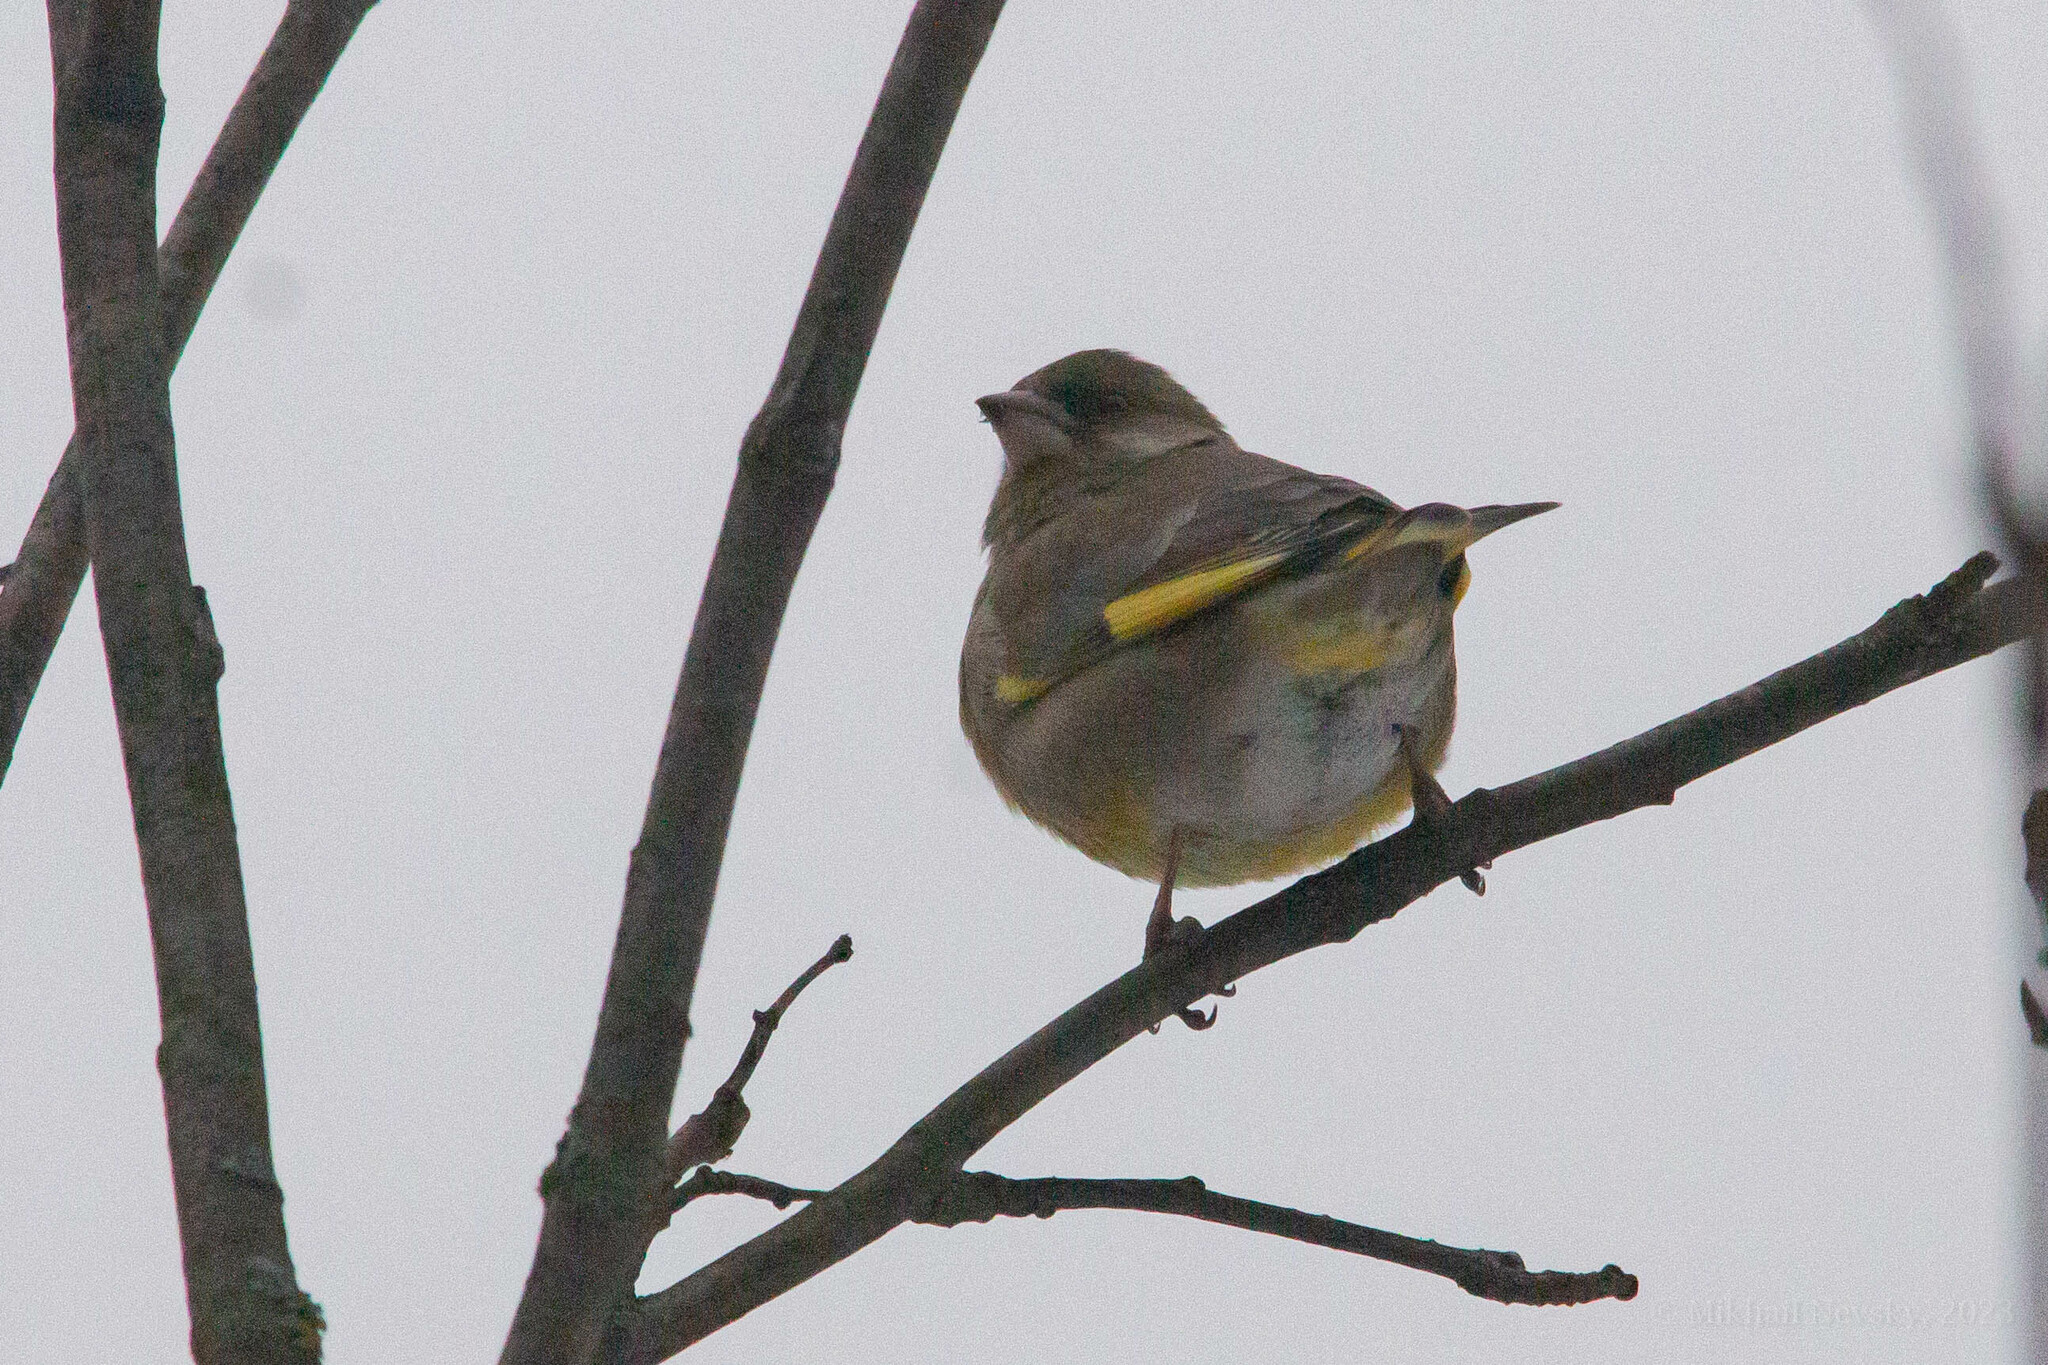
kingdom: Plantae
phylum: Tracheophyta
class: Liliopsida
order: Poales
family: Poaceae
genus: Chloris
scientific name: Chloris chloris
